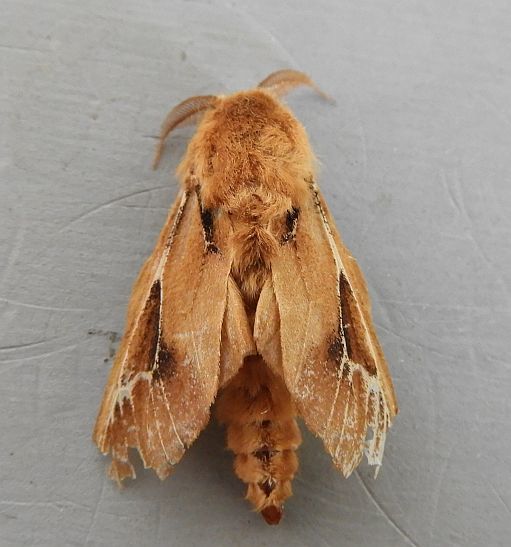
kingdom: Animalia
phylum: Arthropoda
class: Insecta
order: Lepidoptera
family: Psychidae
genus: Oiketicus
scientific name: Oiketicus townsendi
